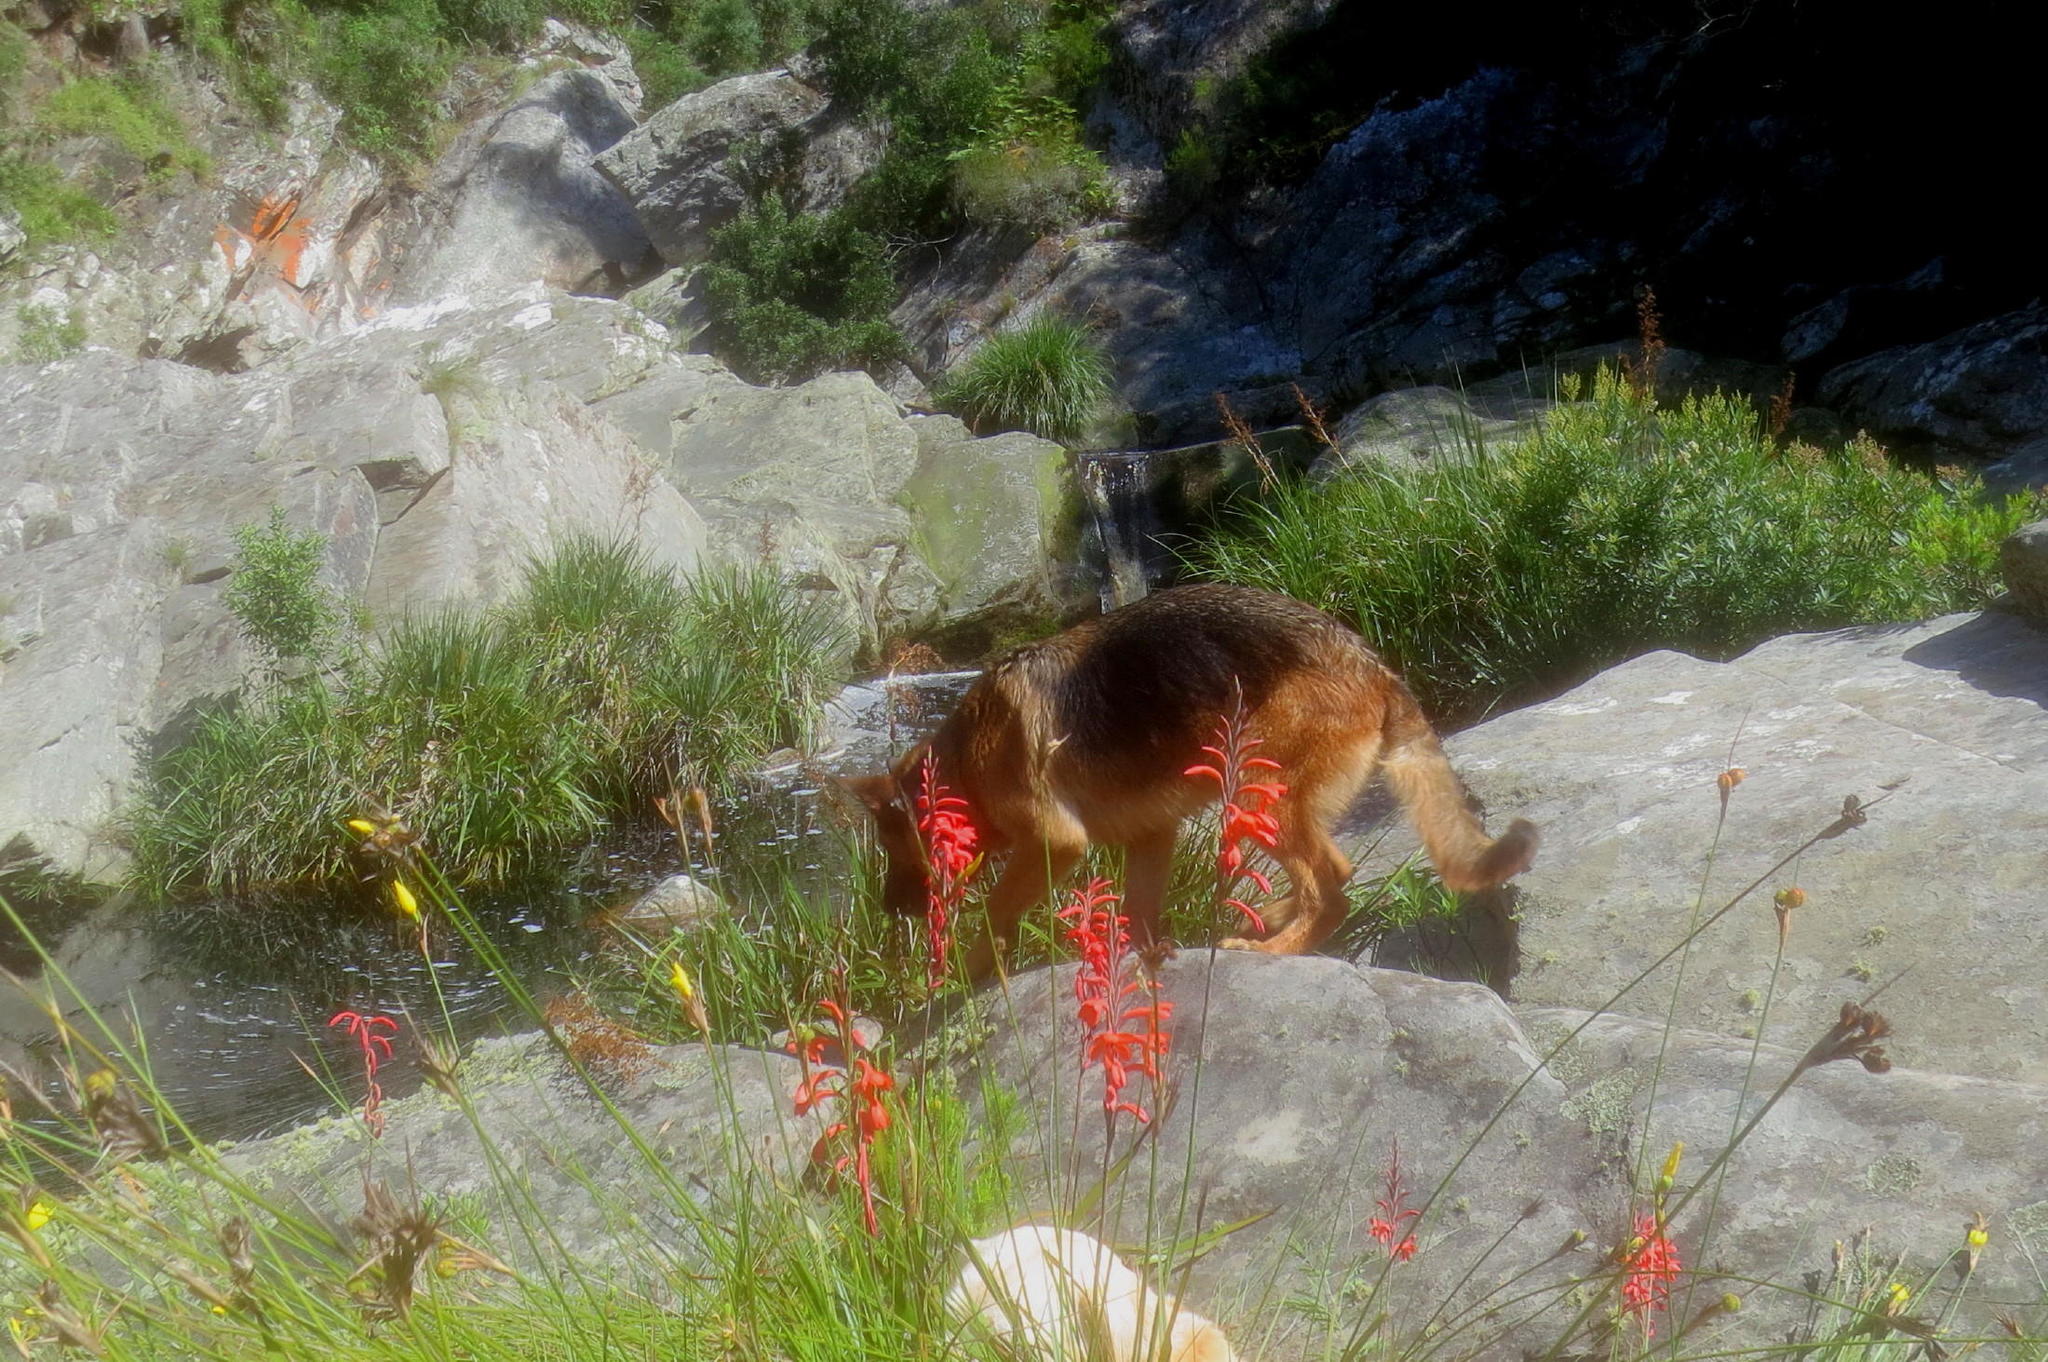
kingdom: Plantae
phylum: Tracheophyta
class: Liliopsida
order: Asparagales
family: Iridaceae
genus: Watsonia
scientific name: Watsonia schlechteri
